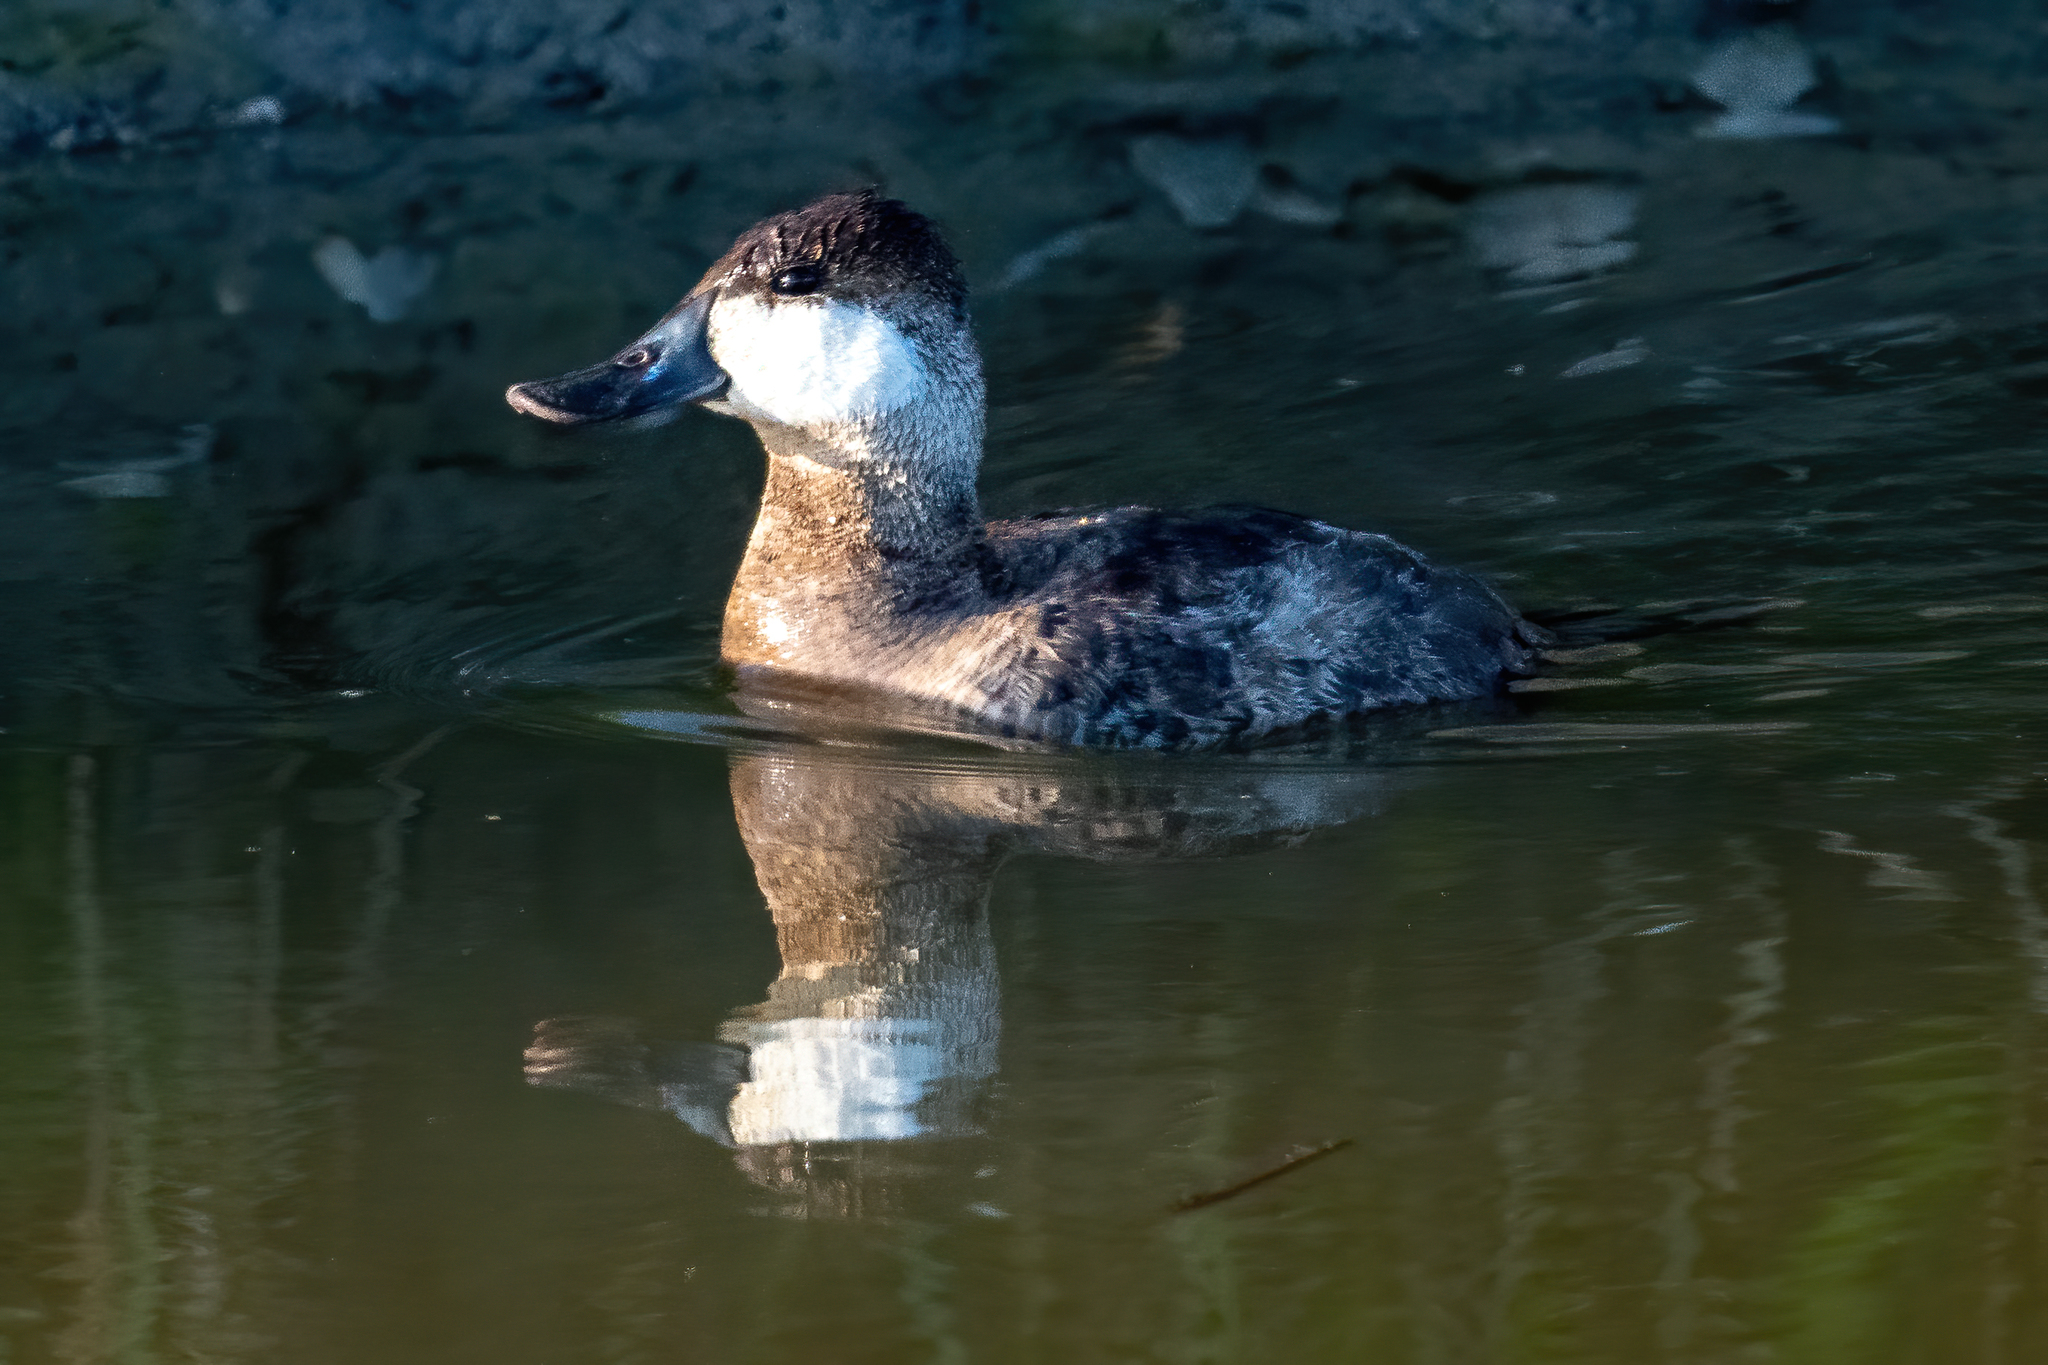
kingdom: Animalia
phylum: Chordata
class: Aves
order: Anseriformes
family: Anatidae
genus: Oxyura
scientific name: Oxyura jamaicensis
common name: Ruddy duck
